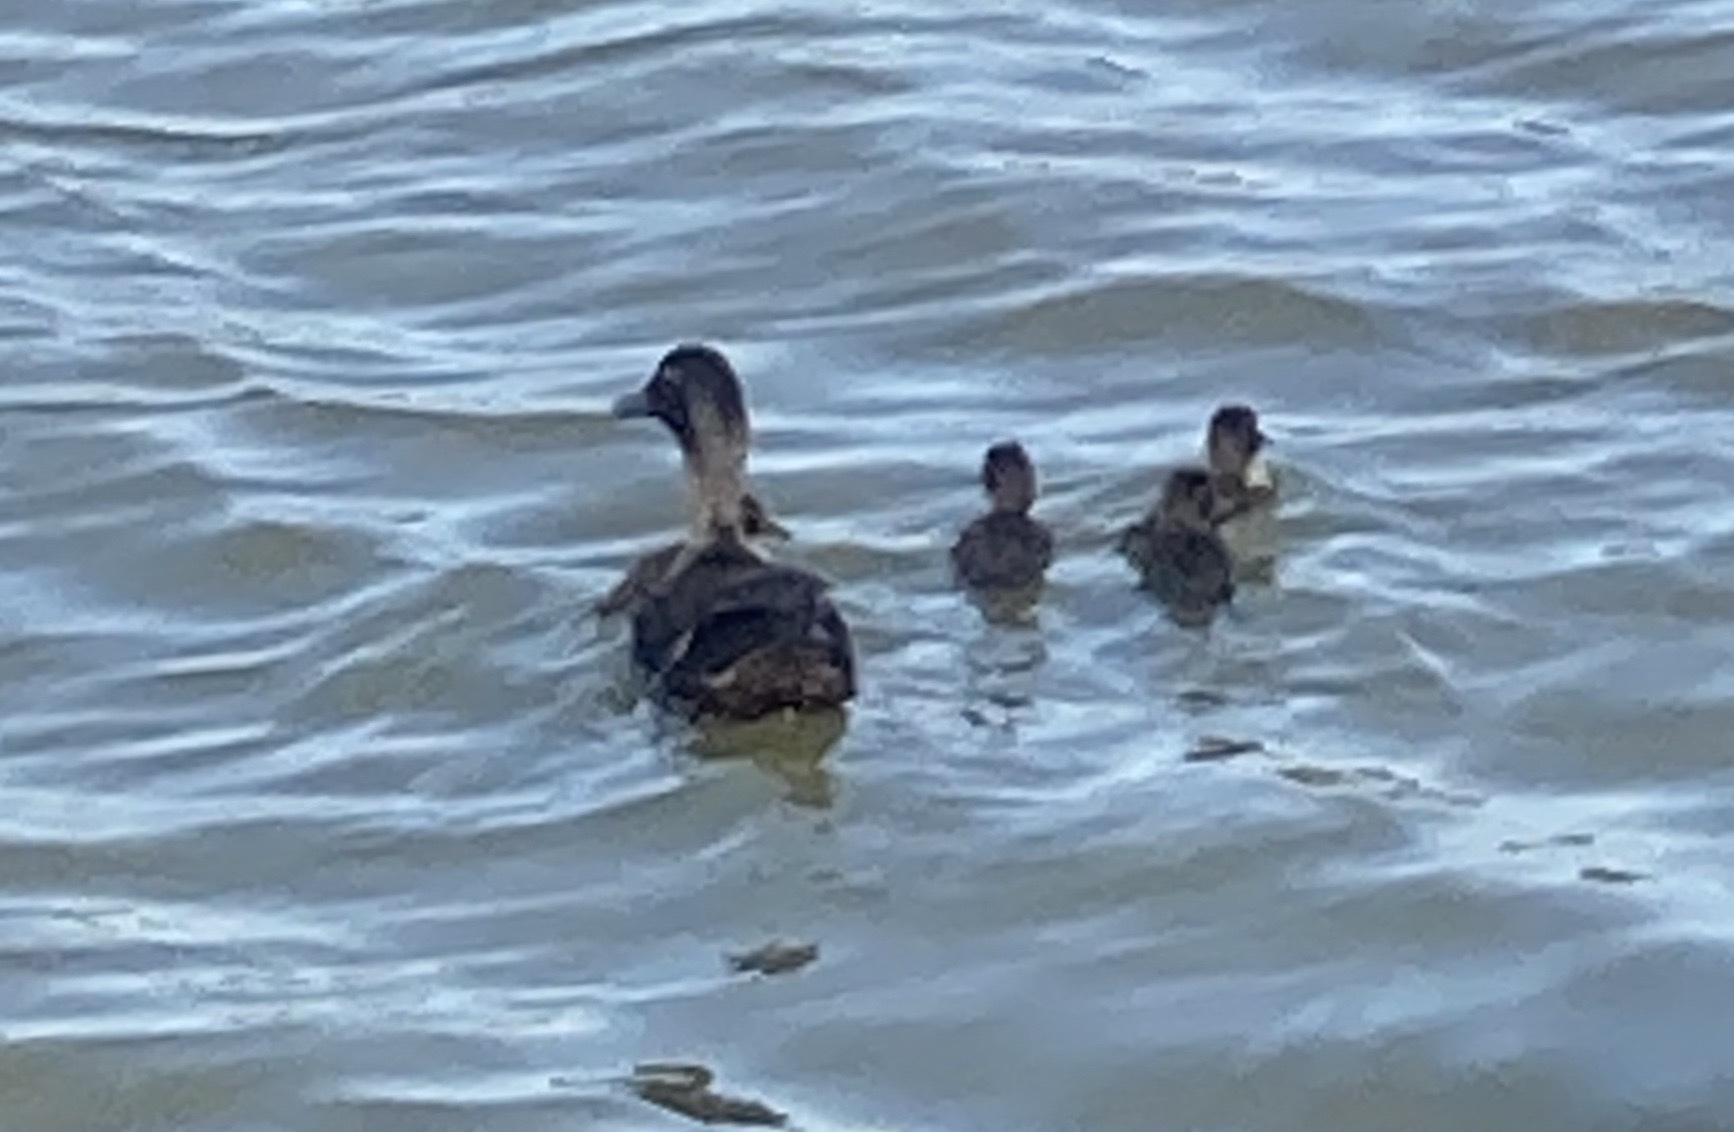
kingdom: Animalia
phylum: Chordata
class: Aves
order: Anseriformes
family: Anatidae
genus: Anas
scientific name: Anas platyrhynchos
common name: Mallard
